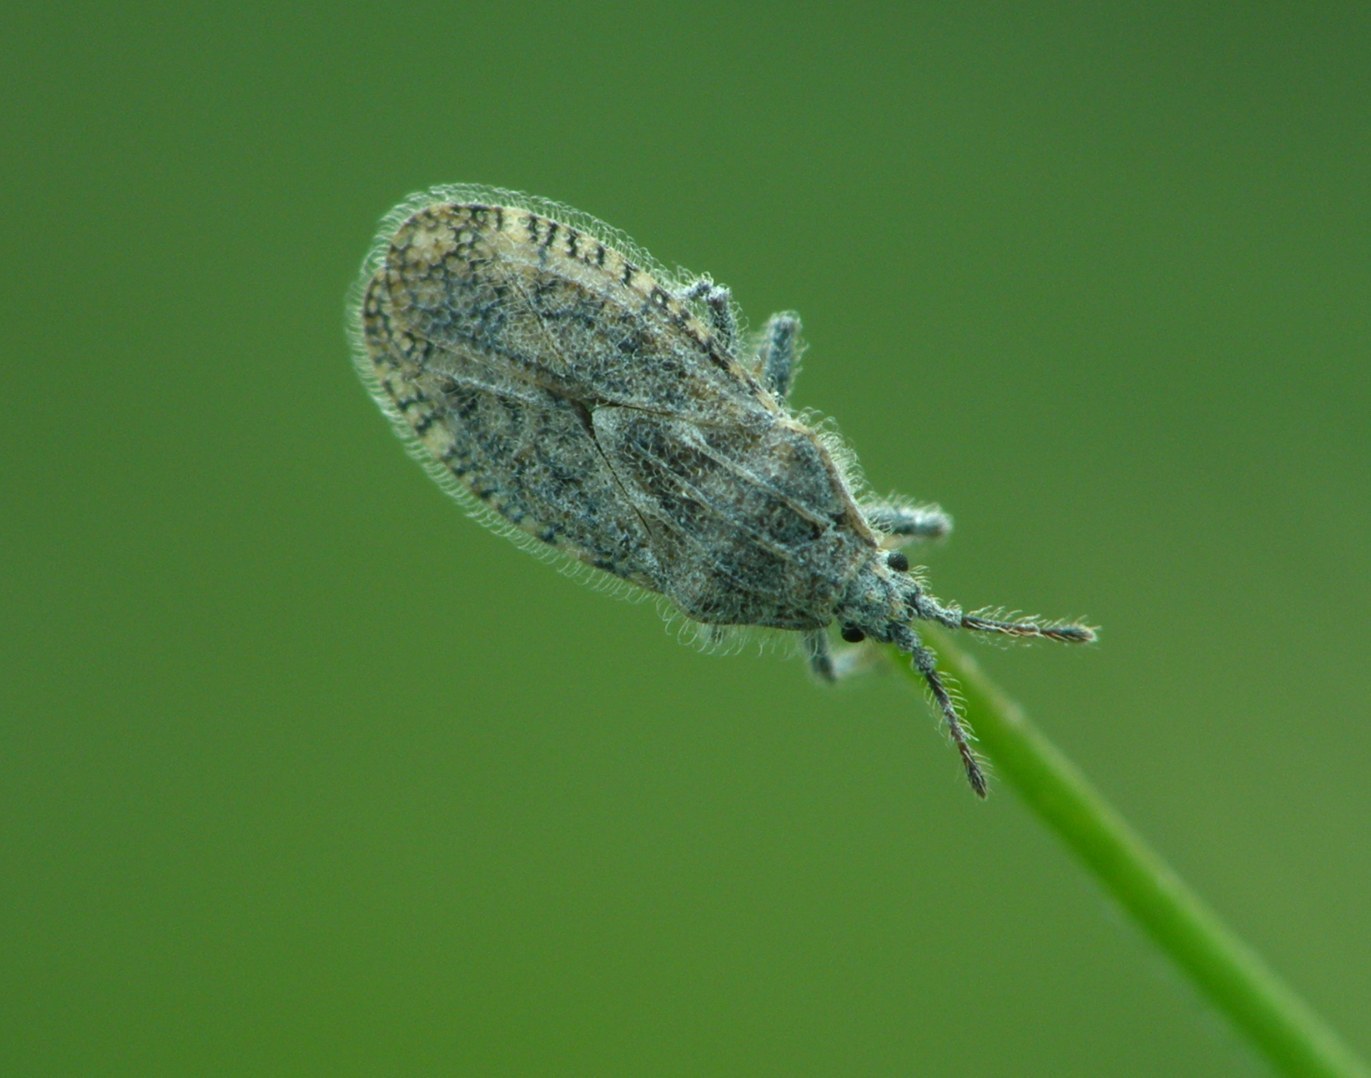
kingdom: Animalia
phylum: Arthropoda
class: Insecta
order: Hemiptera
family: Tingidae
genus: Tingis
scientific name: Tingis pilosa
